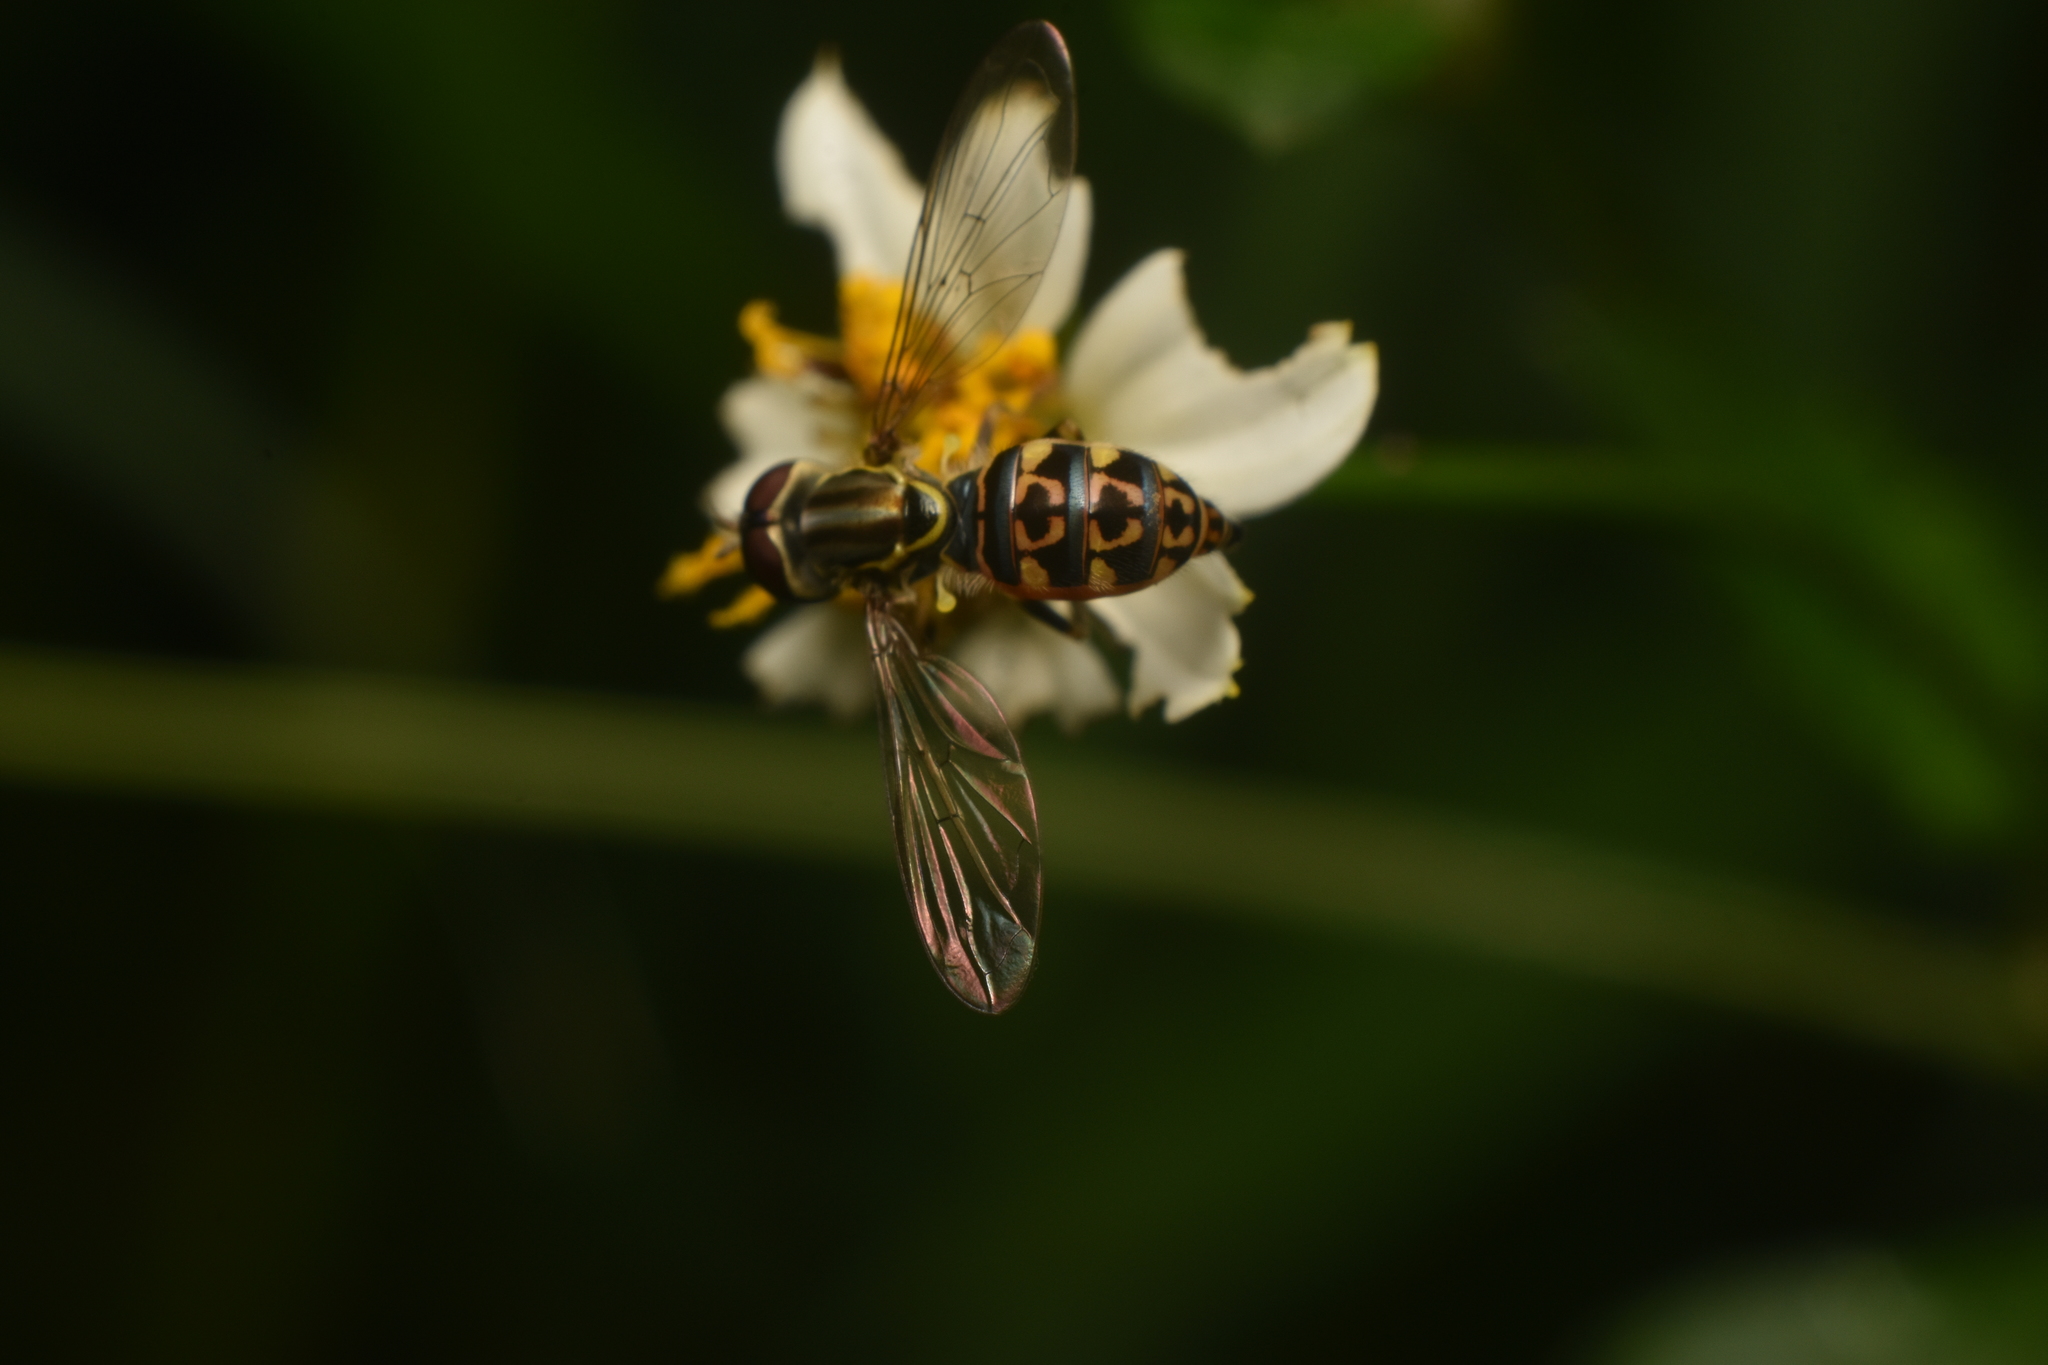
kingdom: Animalia
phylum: Arthropoda
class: Insecta
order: Diptera
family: Syrphidae
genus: Toxomerus
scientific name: Toxomerus virgulatus
